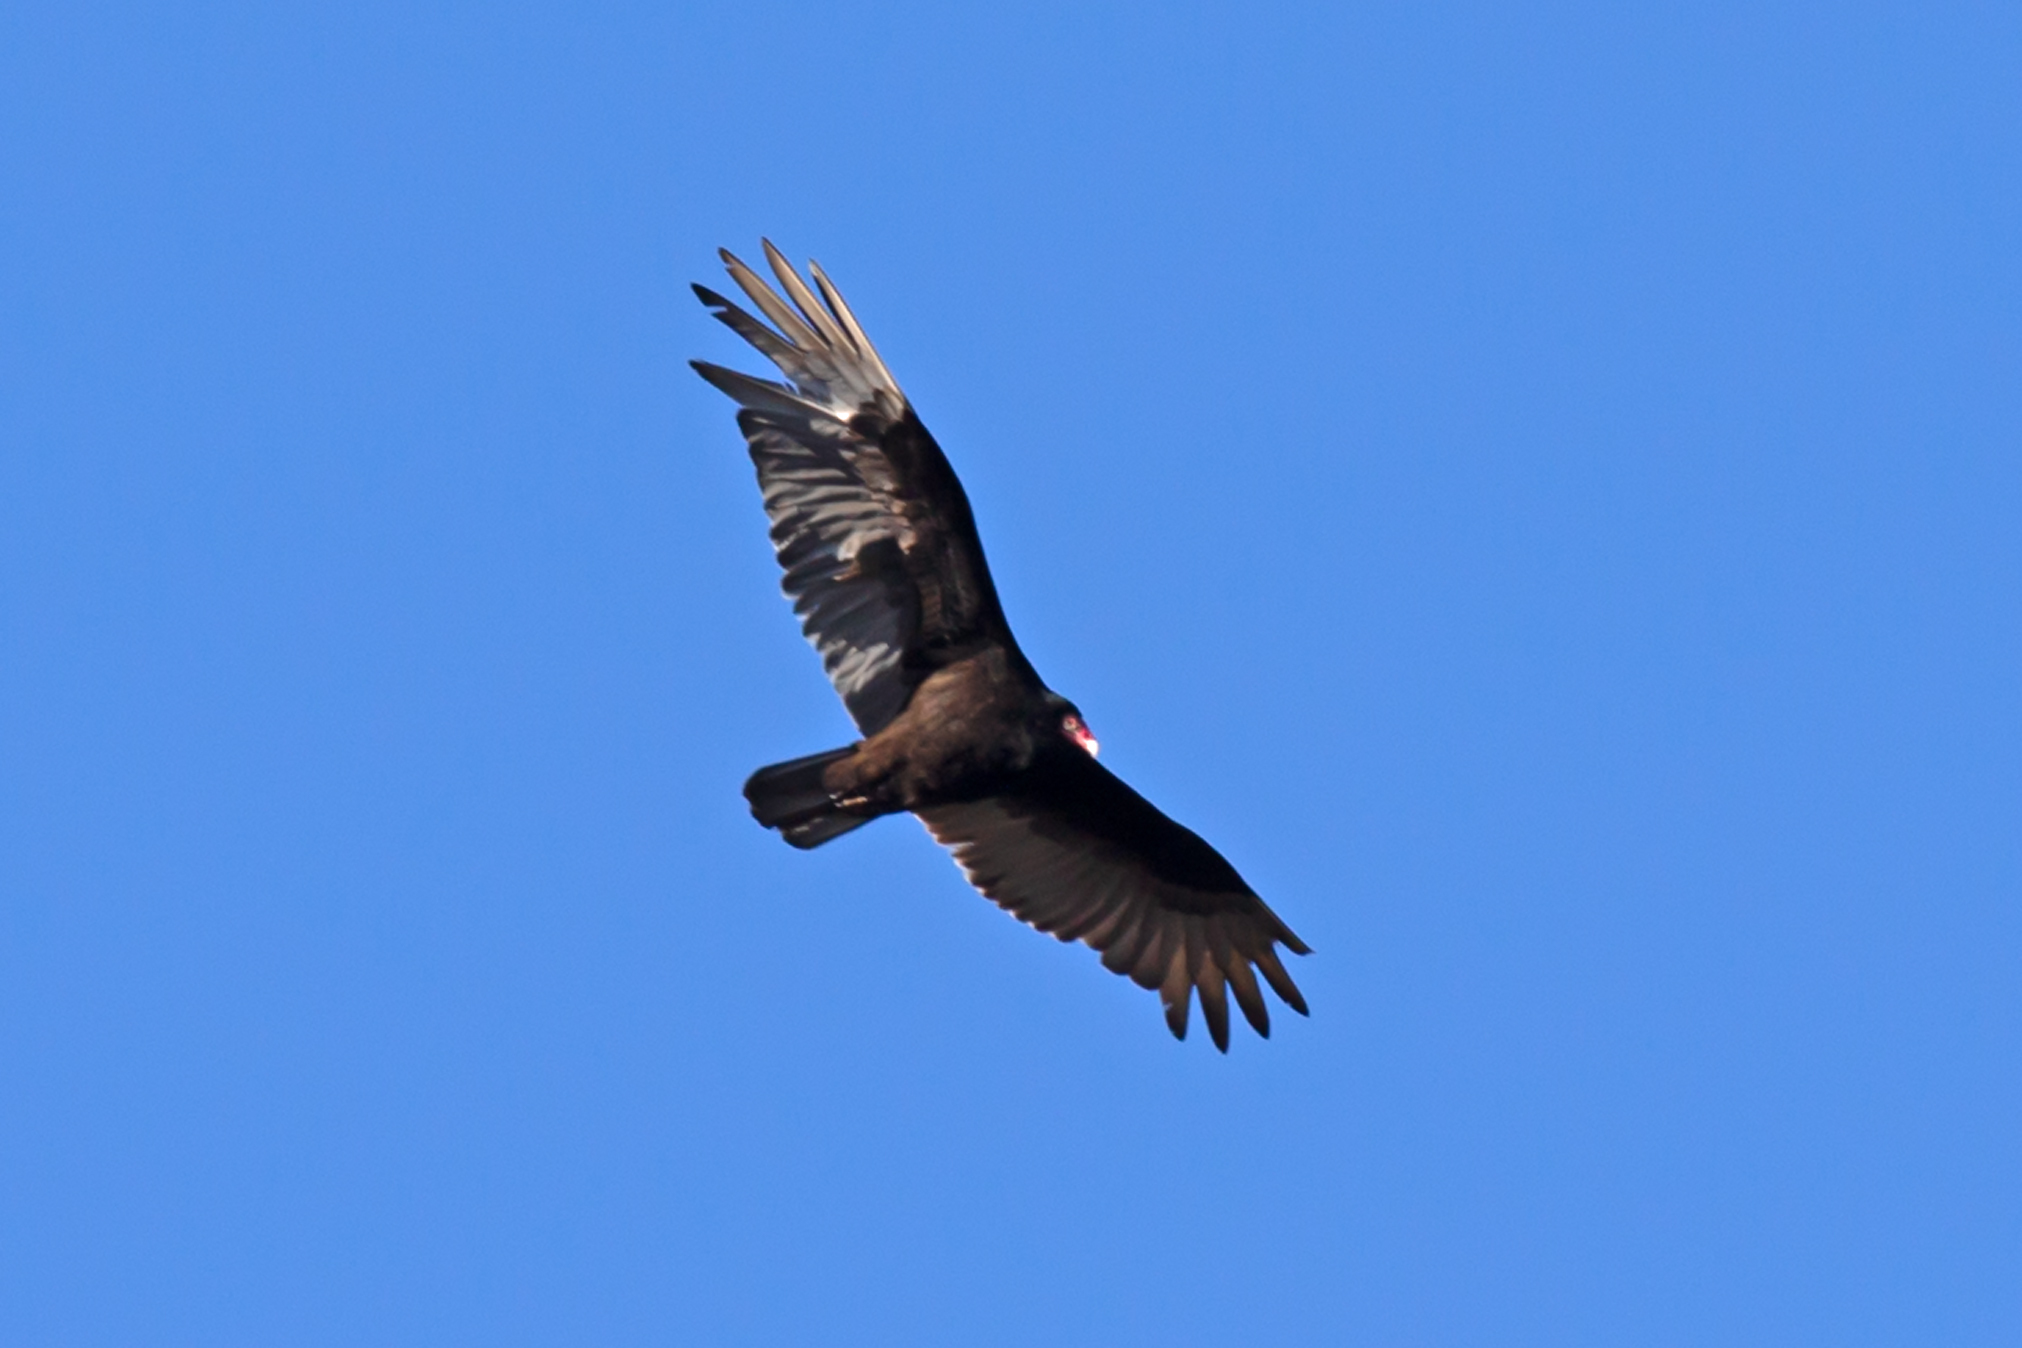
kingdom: Animalia
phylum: Chordata
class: Aves
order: Accipitriformes
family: Cathartidae
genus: Cathartes
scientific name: Cathartes aura
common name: Turkey vulture
